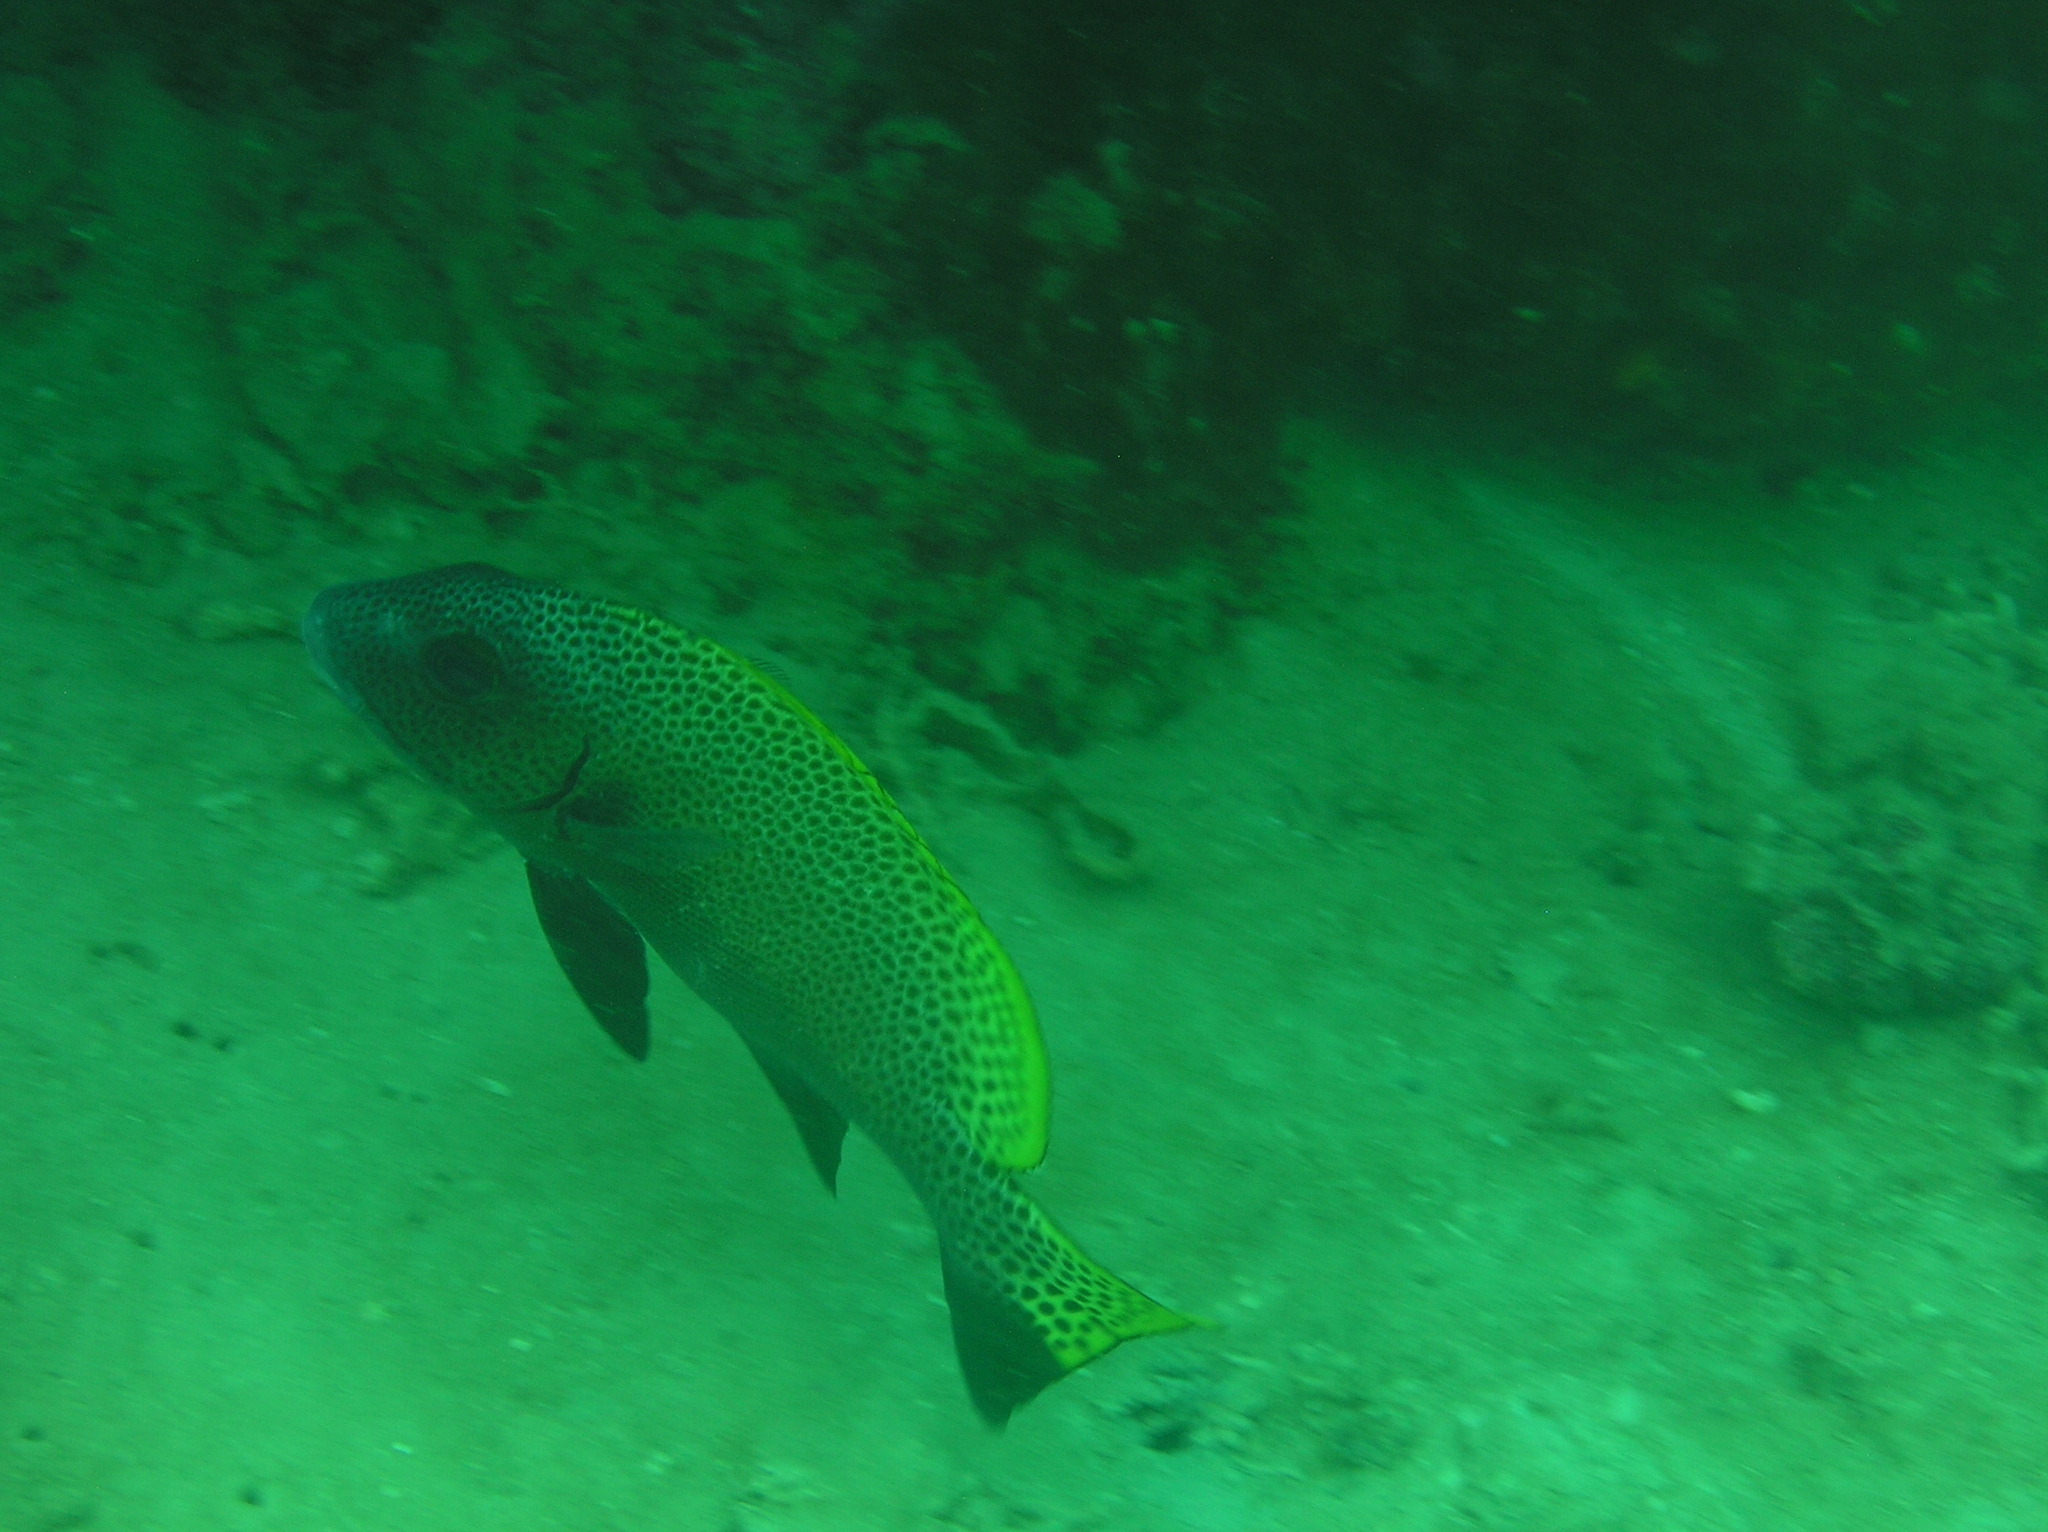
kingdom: Animalia
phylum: Chordata
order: Perciformes
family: Haemulidae
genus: Diagramma
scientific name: Diagramma melanacrum
